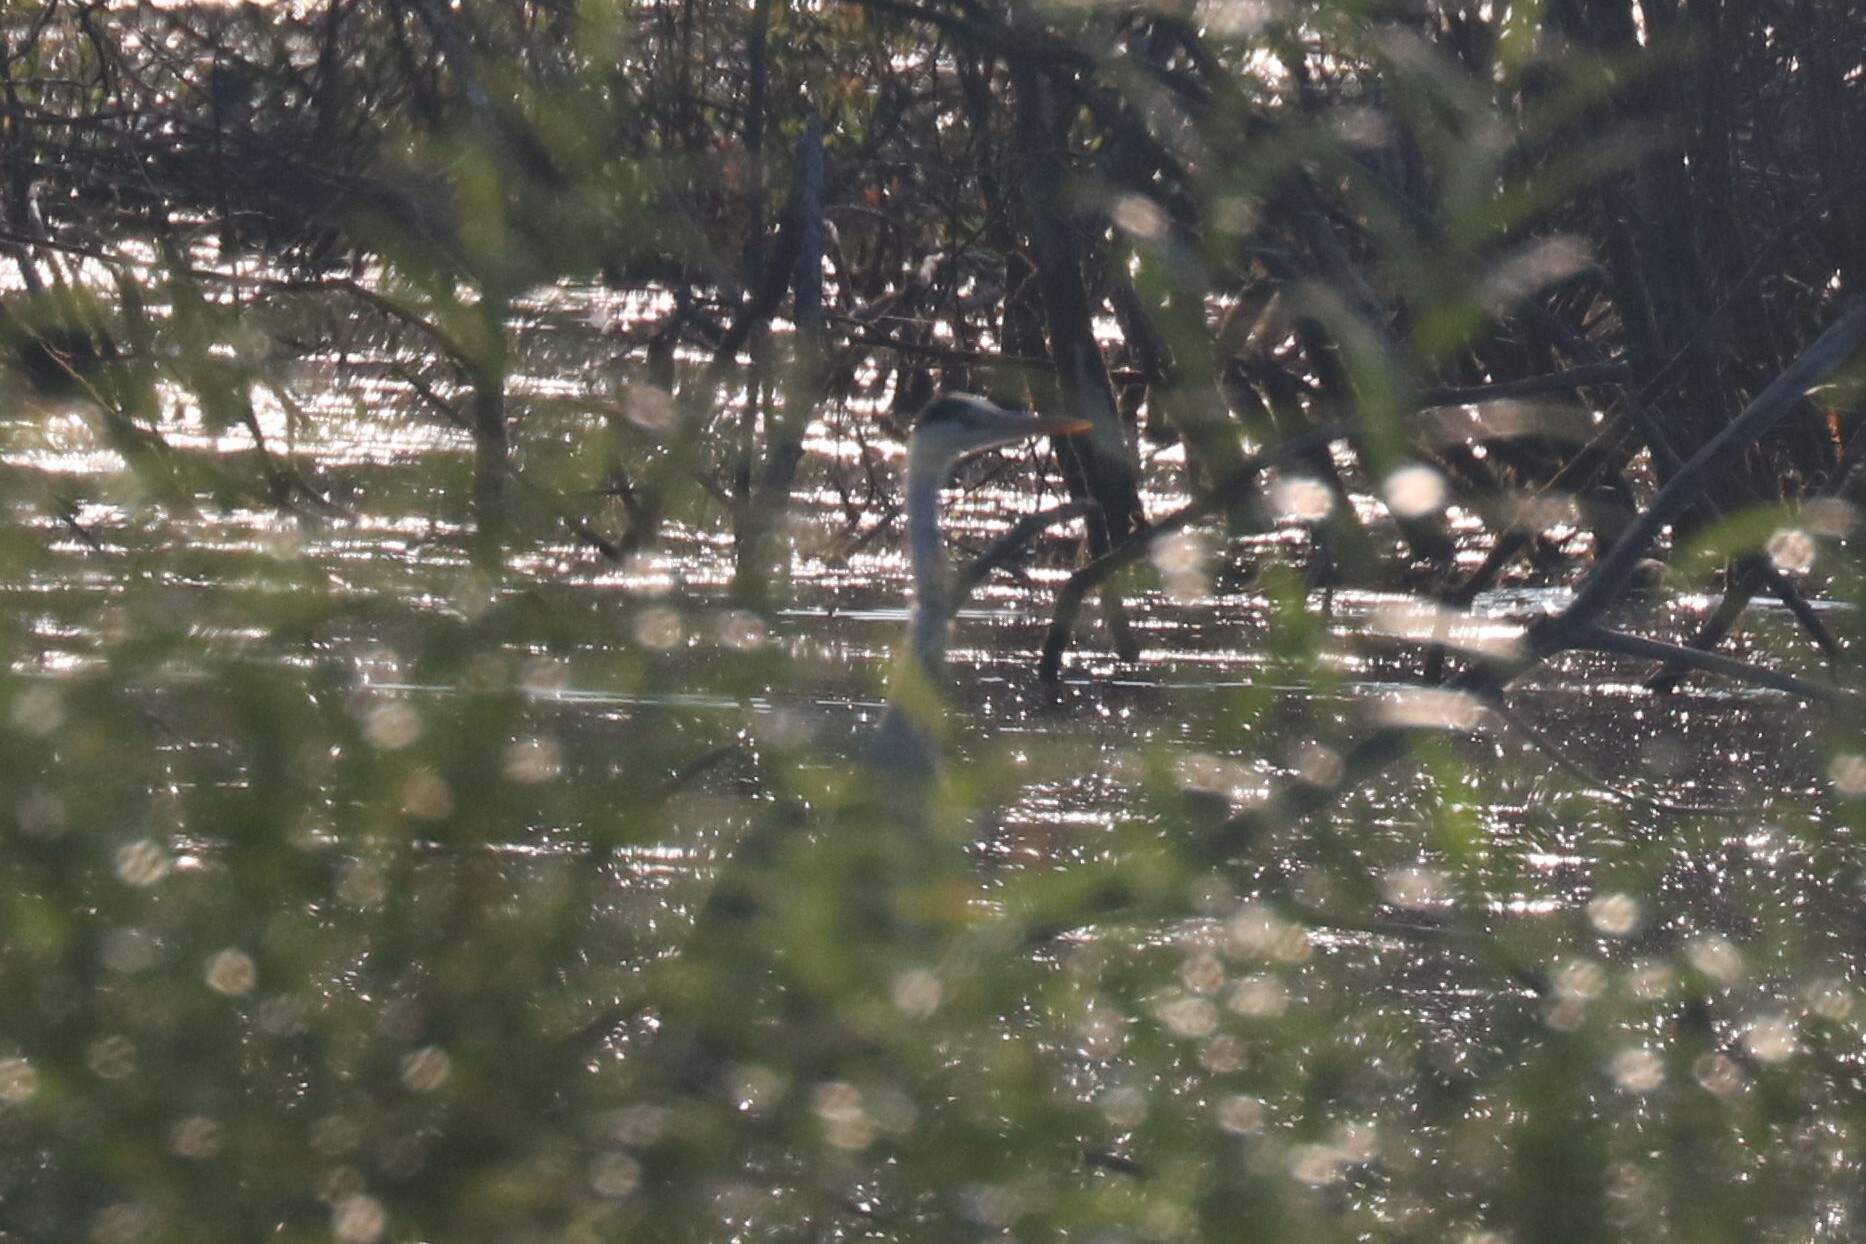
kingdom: Animalia
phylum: Chordata
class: Aves
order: Pelecaniformes
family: Ardeidae
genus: Ardea
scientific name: Ardea cinerea
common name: Grey heron
